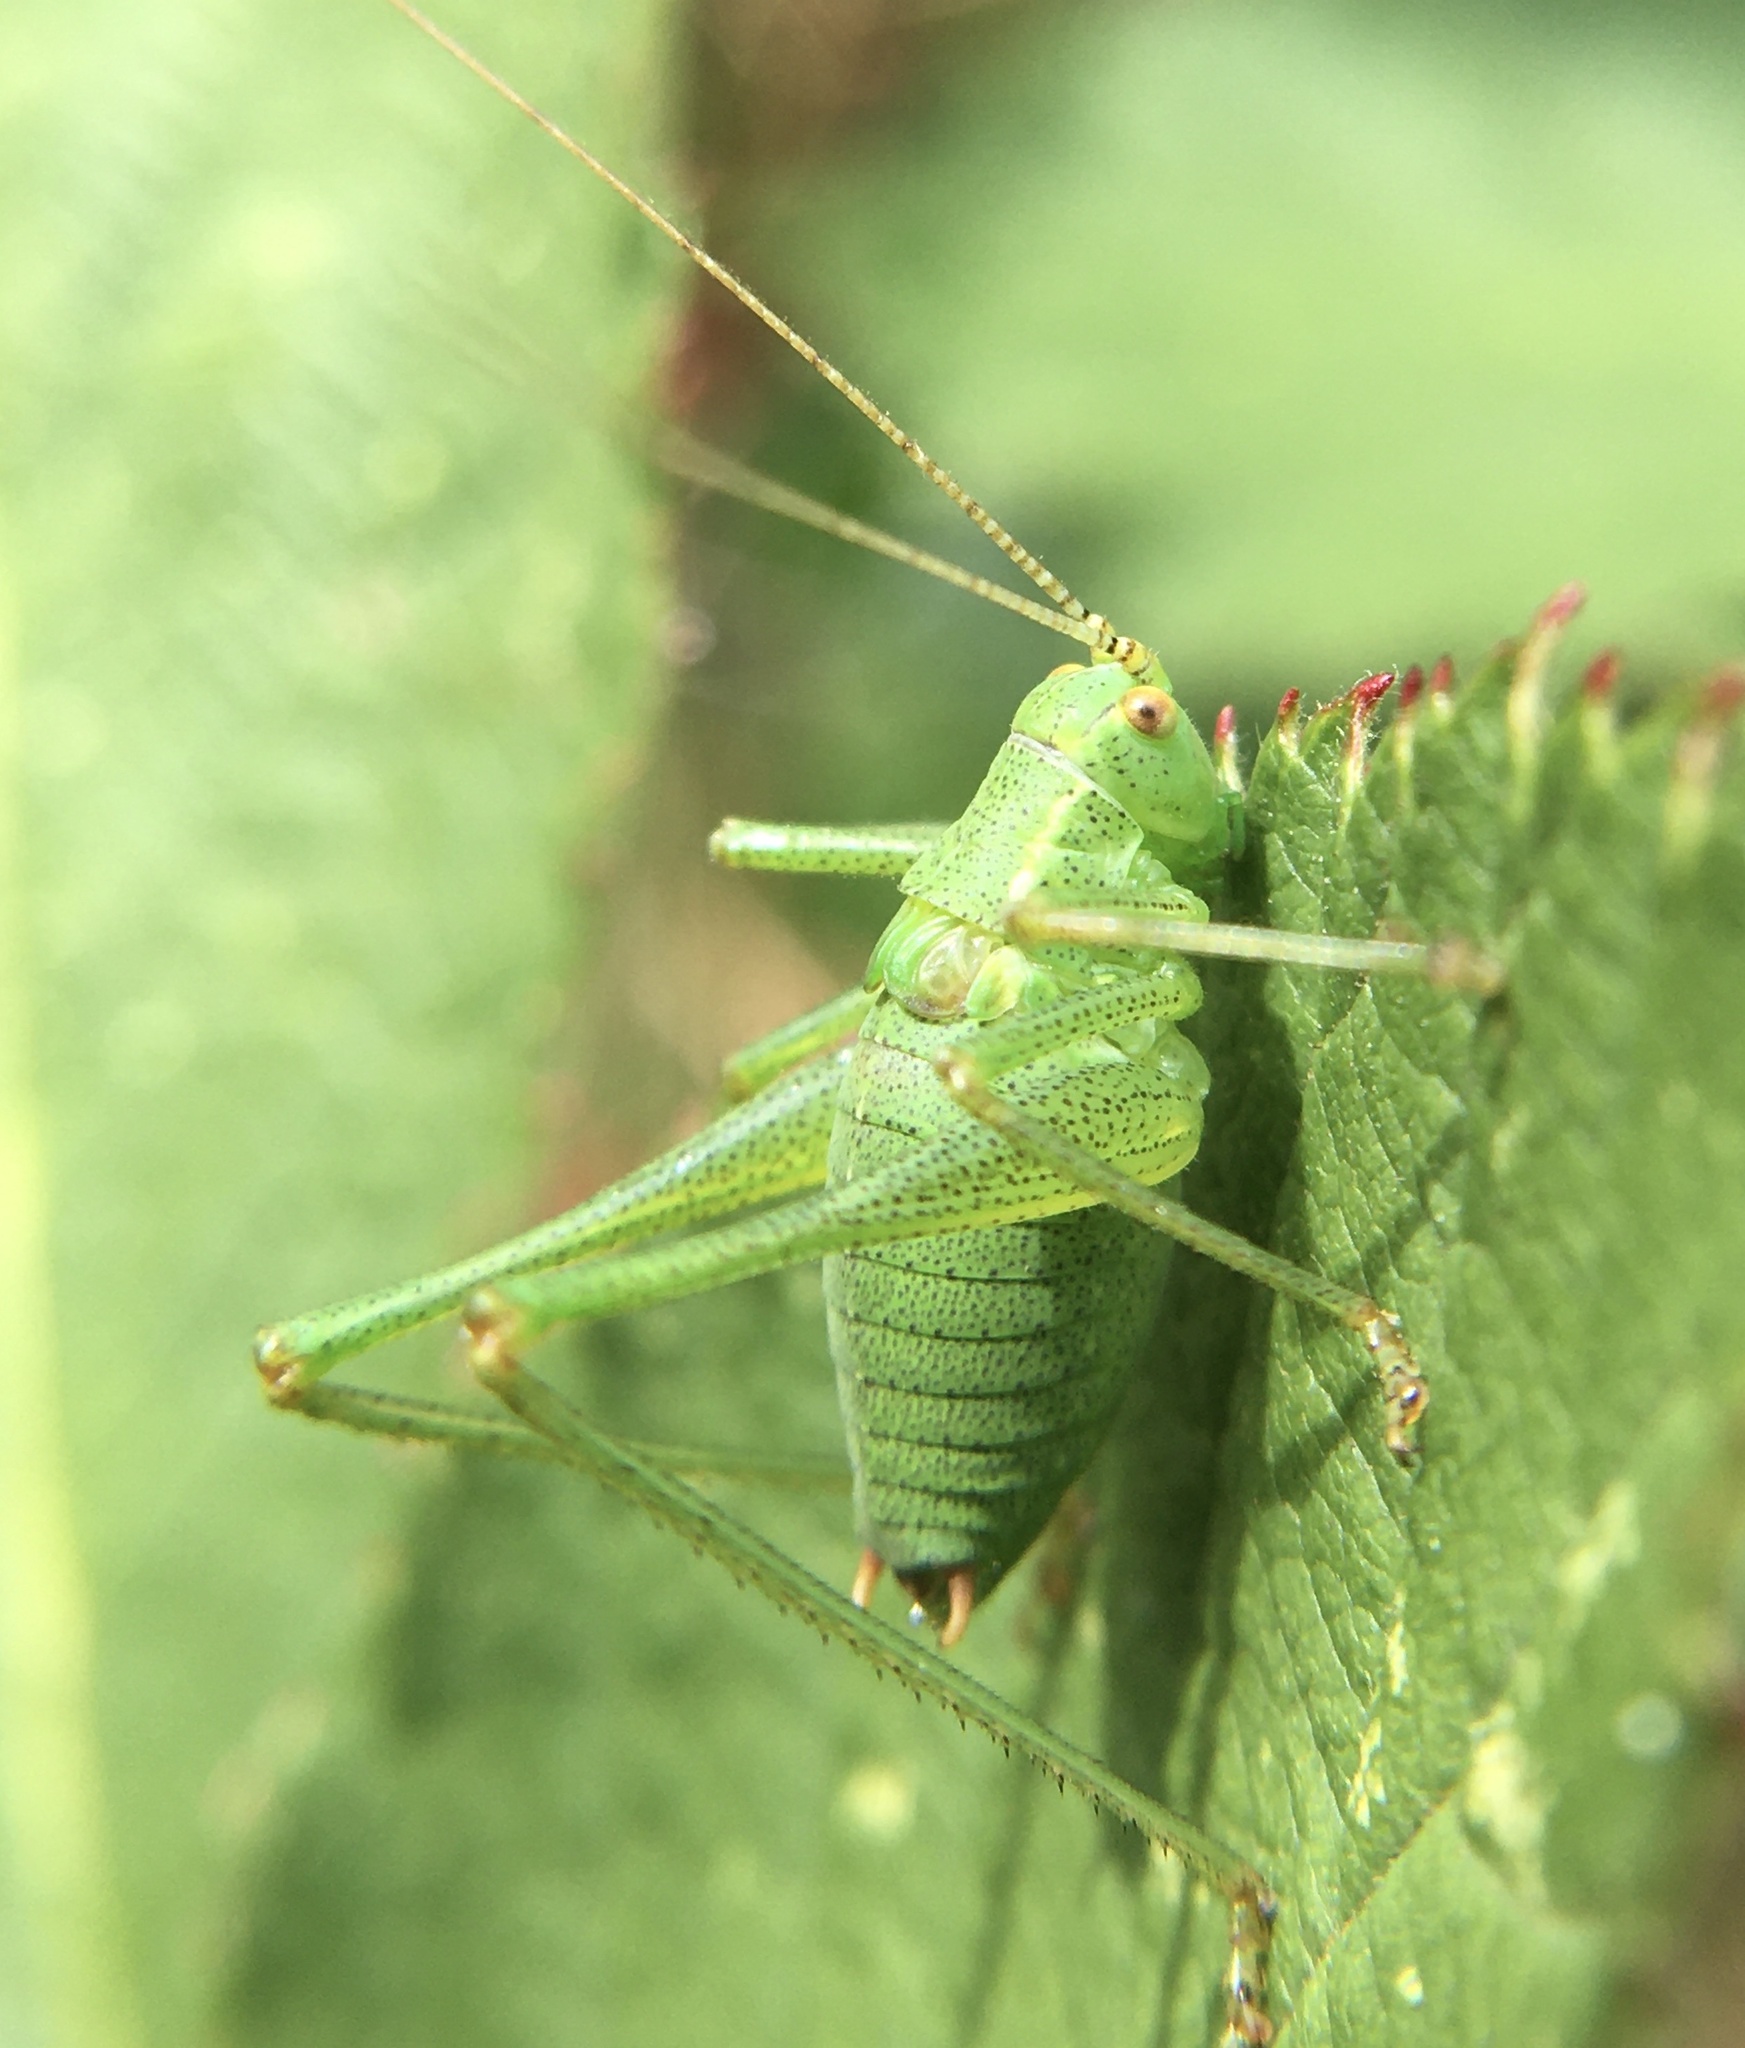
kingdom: Animalia
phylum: Arthropoda
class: Insecta
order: Orthoptera
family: Tettigoniidae
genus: Leptophyes
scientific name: Leptophyes punctatissima
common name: Speckled bush-cricket
